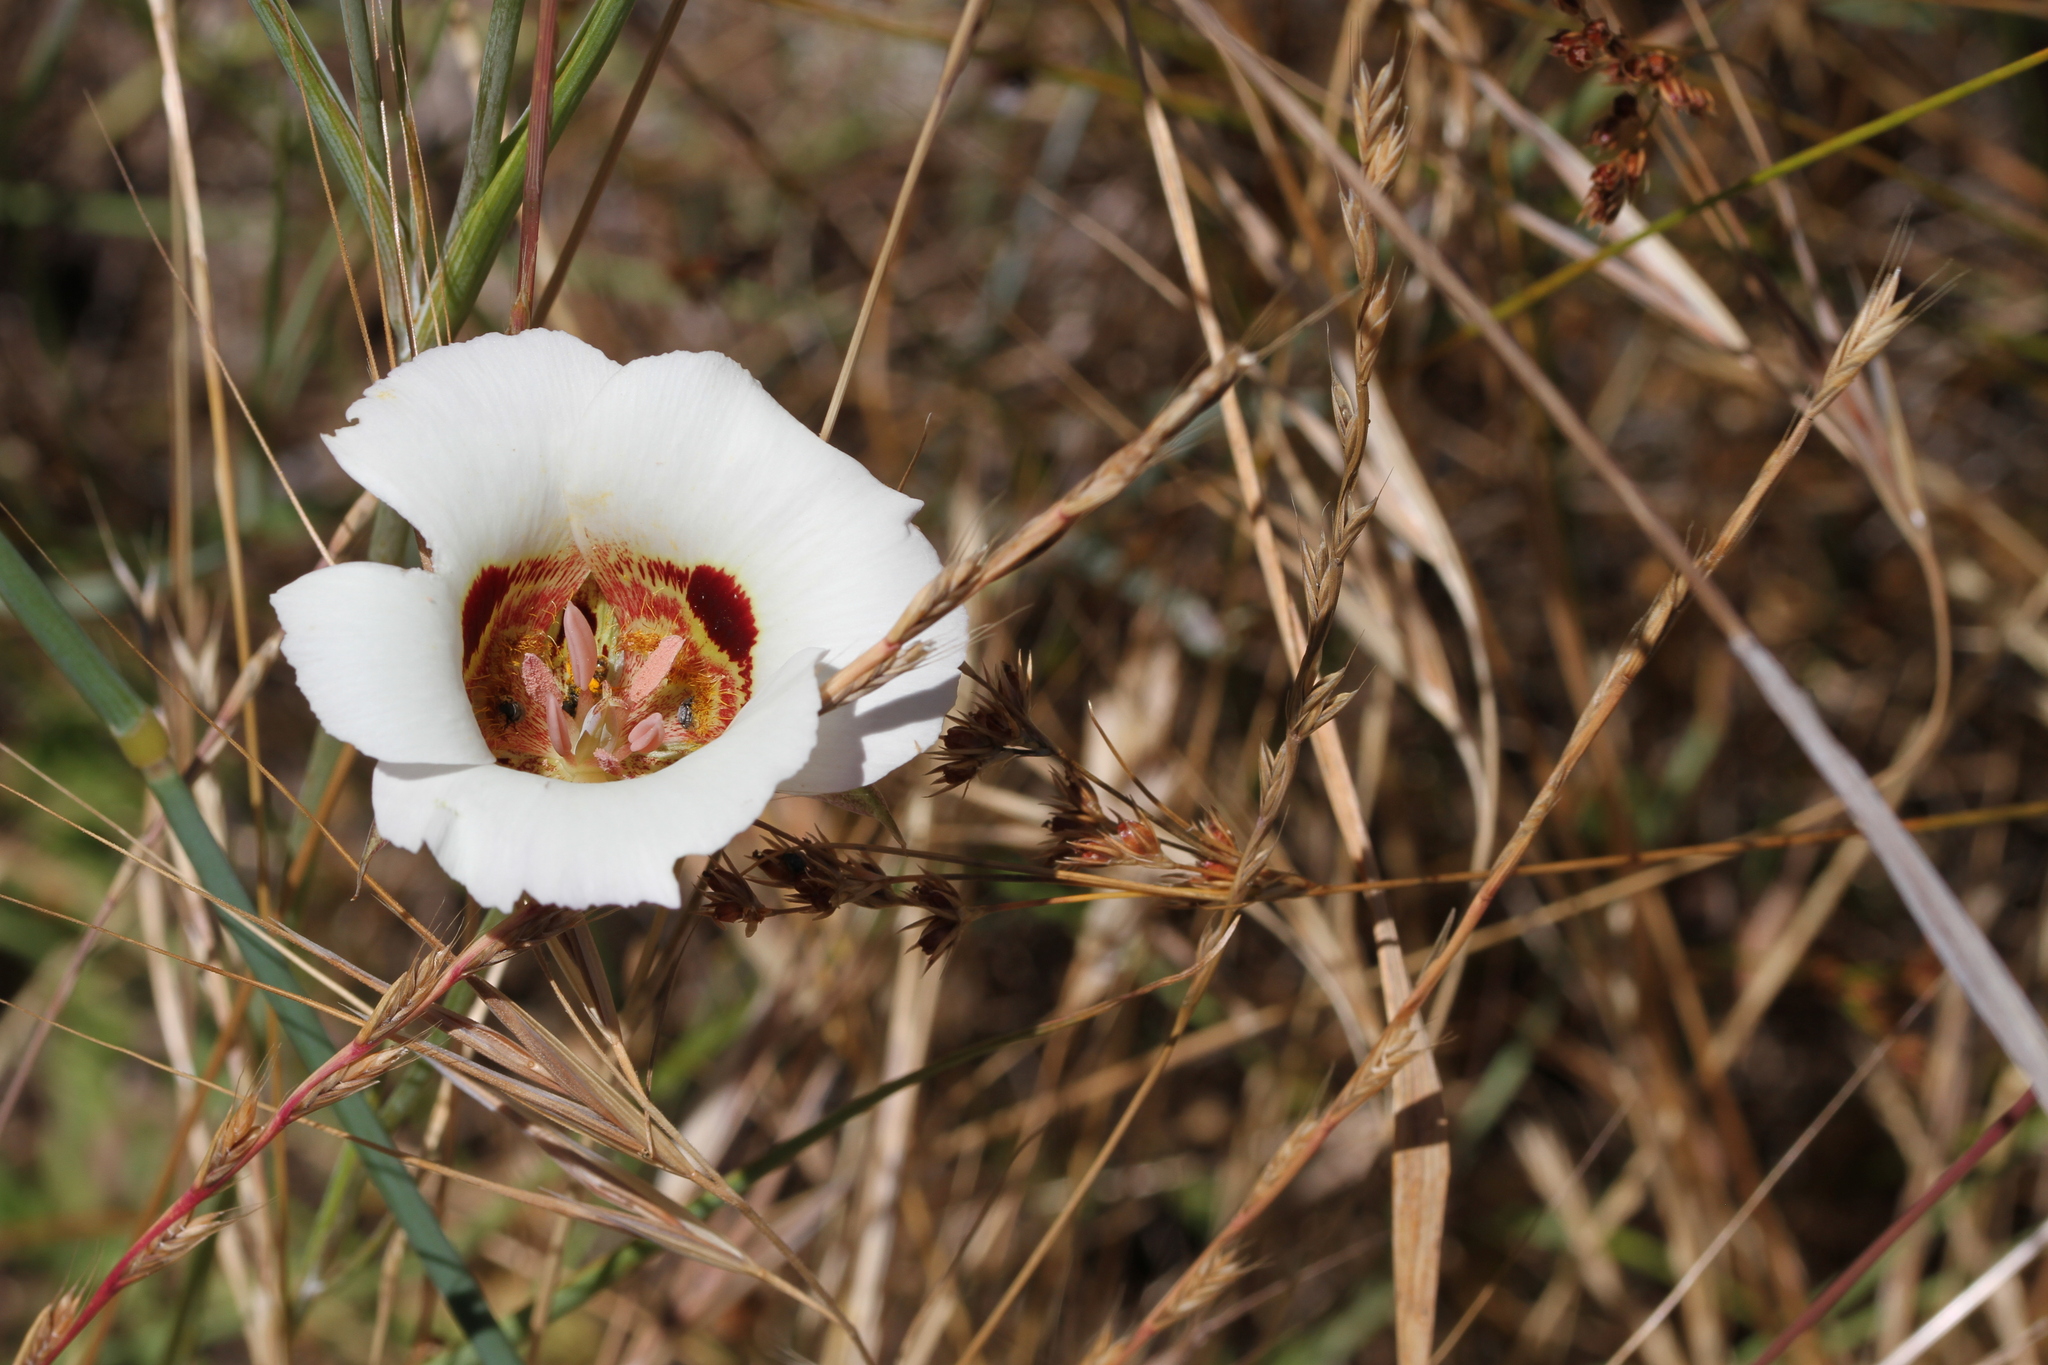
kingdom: Plantae
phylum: Tracheophyta
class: Liliopsida
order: Liliales
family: Liliaceae
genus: Calochortus
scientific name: Calochortus vestae
